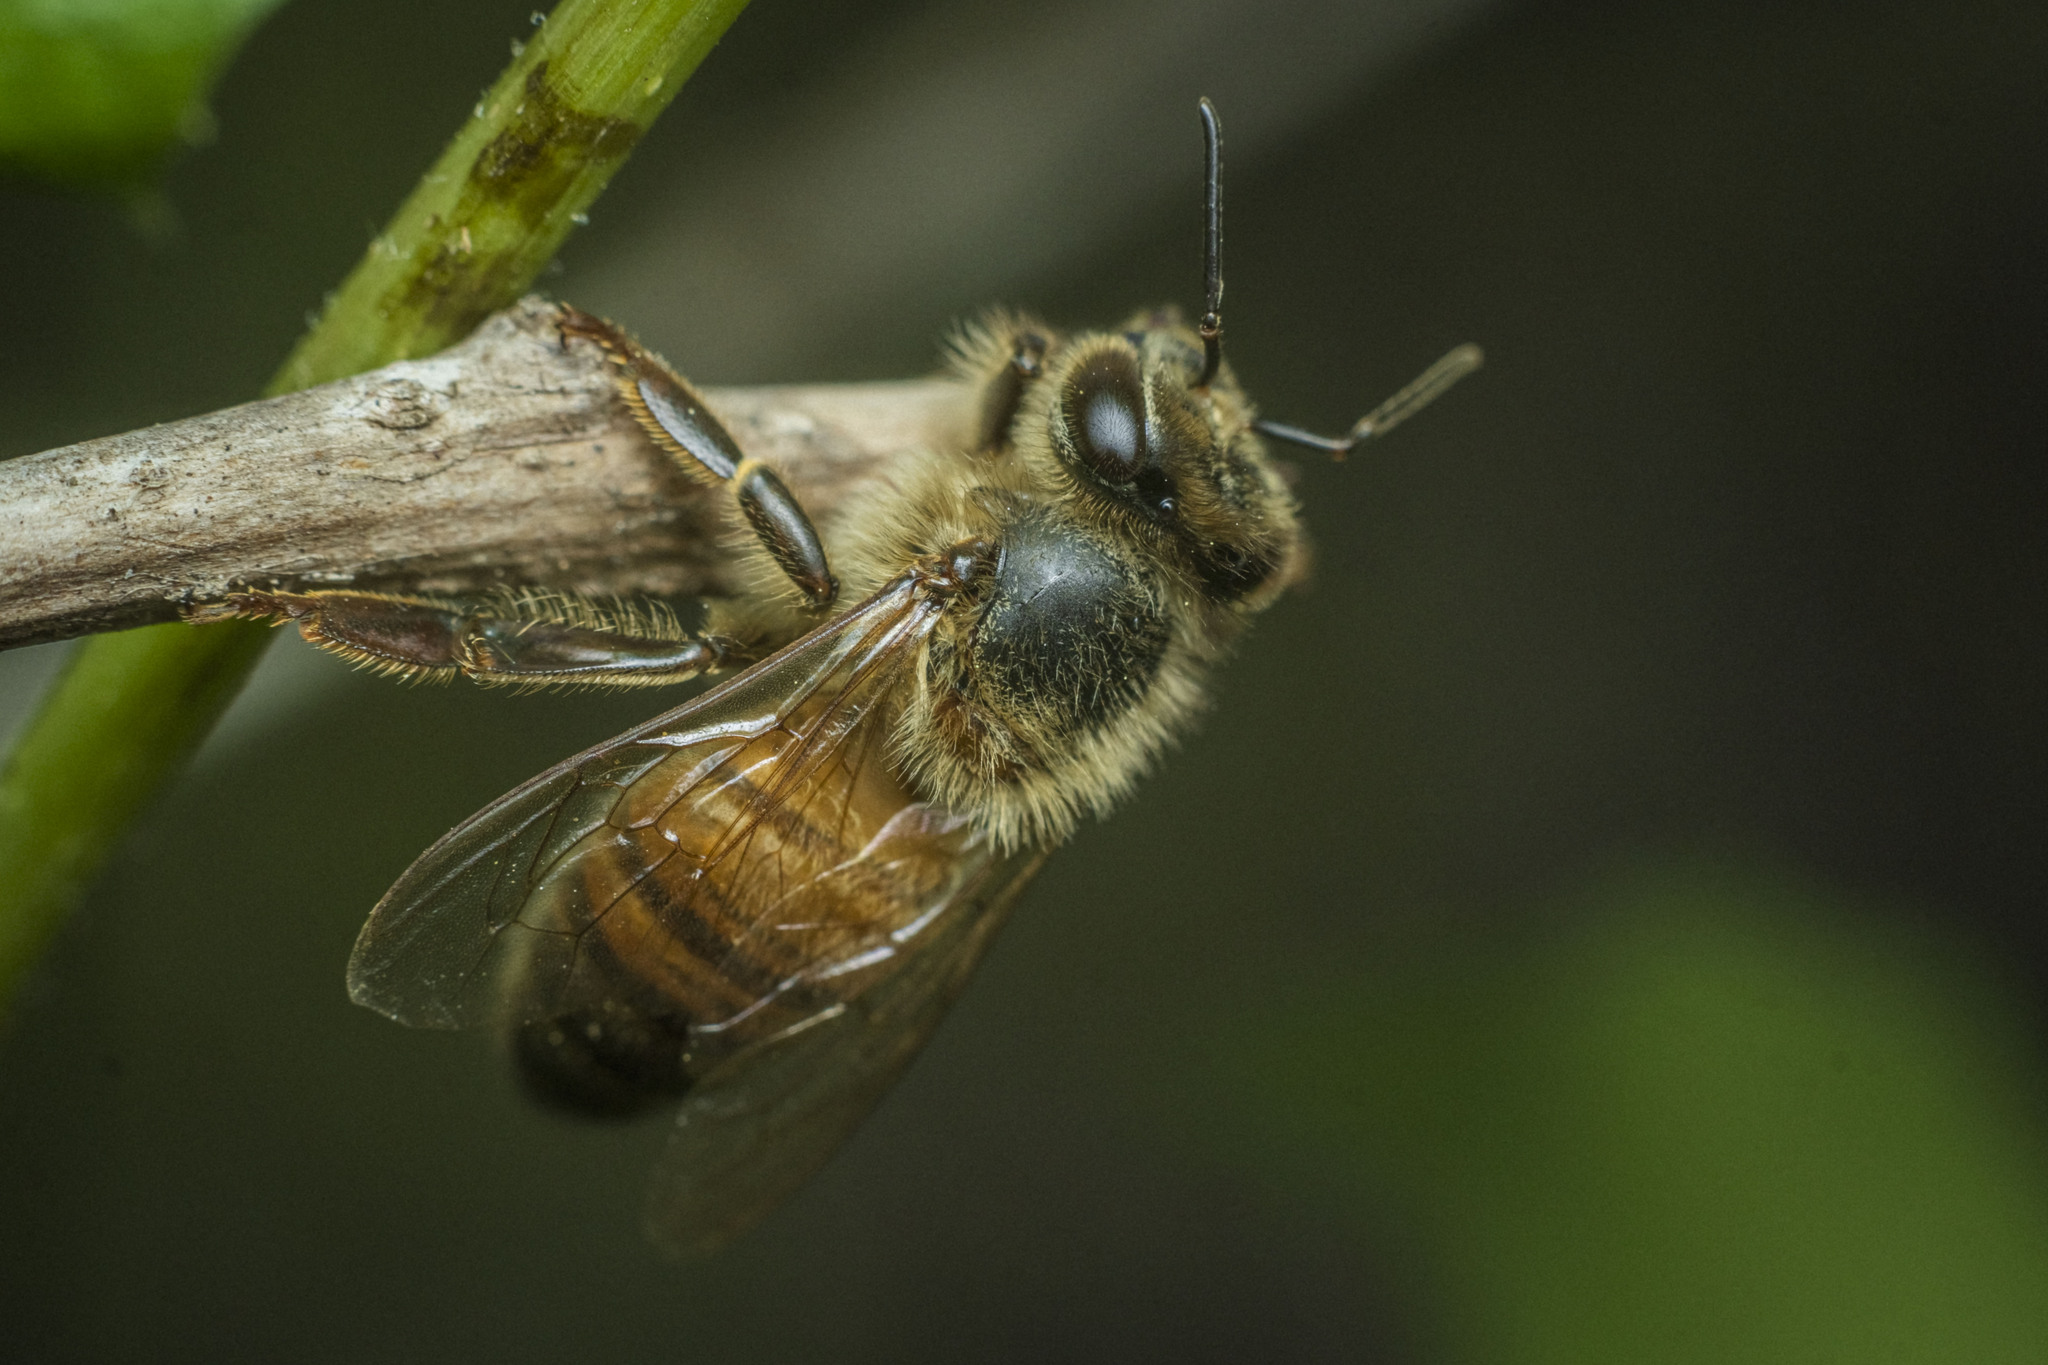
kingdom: Animalia
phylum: Arthropoda
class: Insecta
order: Hymenoptera
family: Apidae
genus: Apis
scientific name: Apis mellifera
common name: Honey bee
